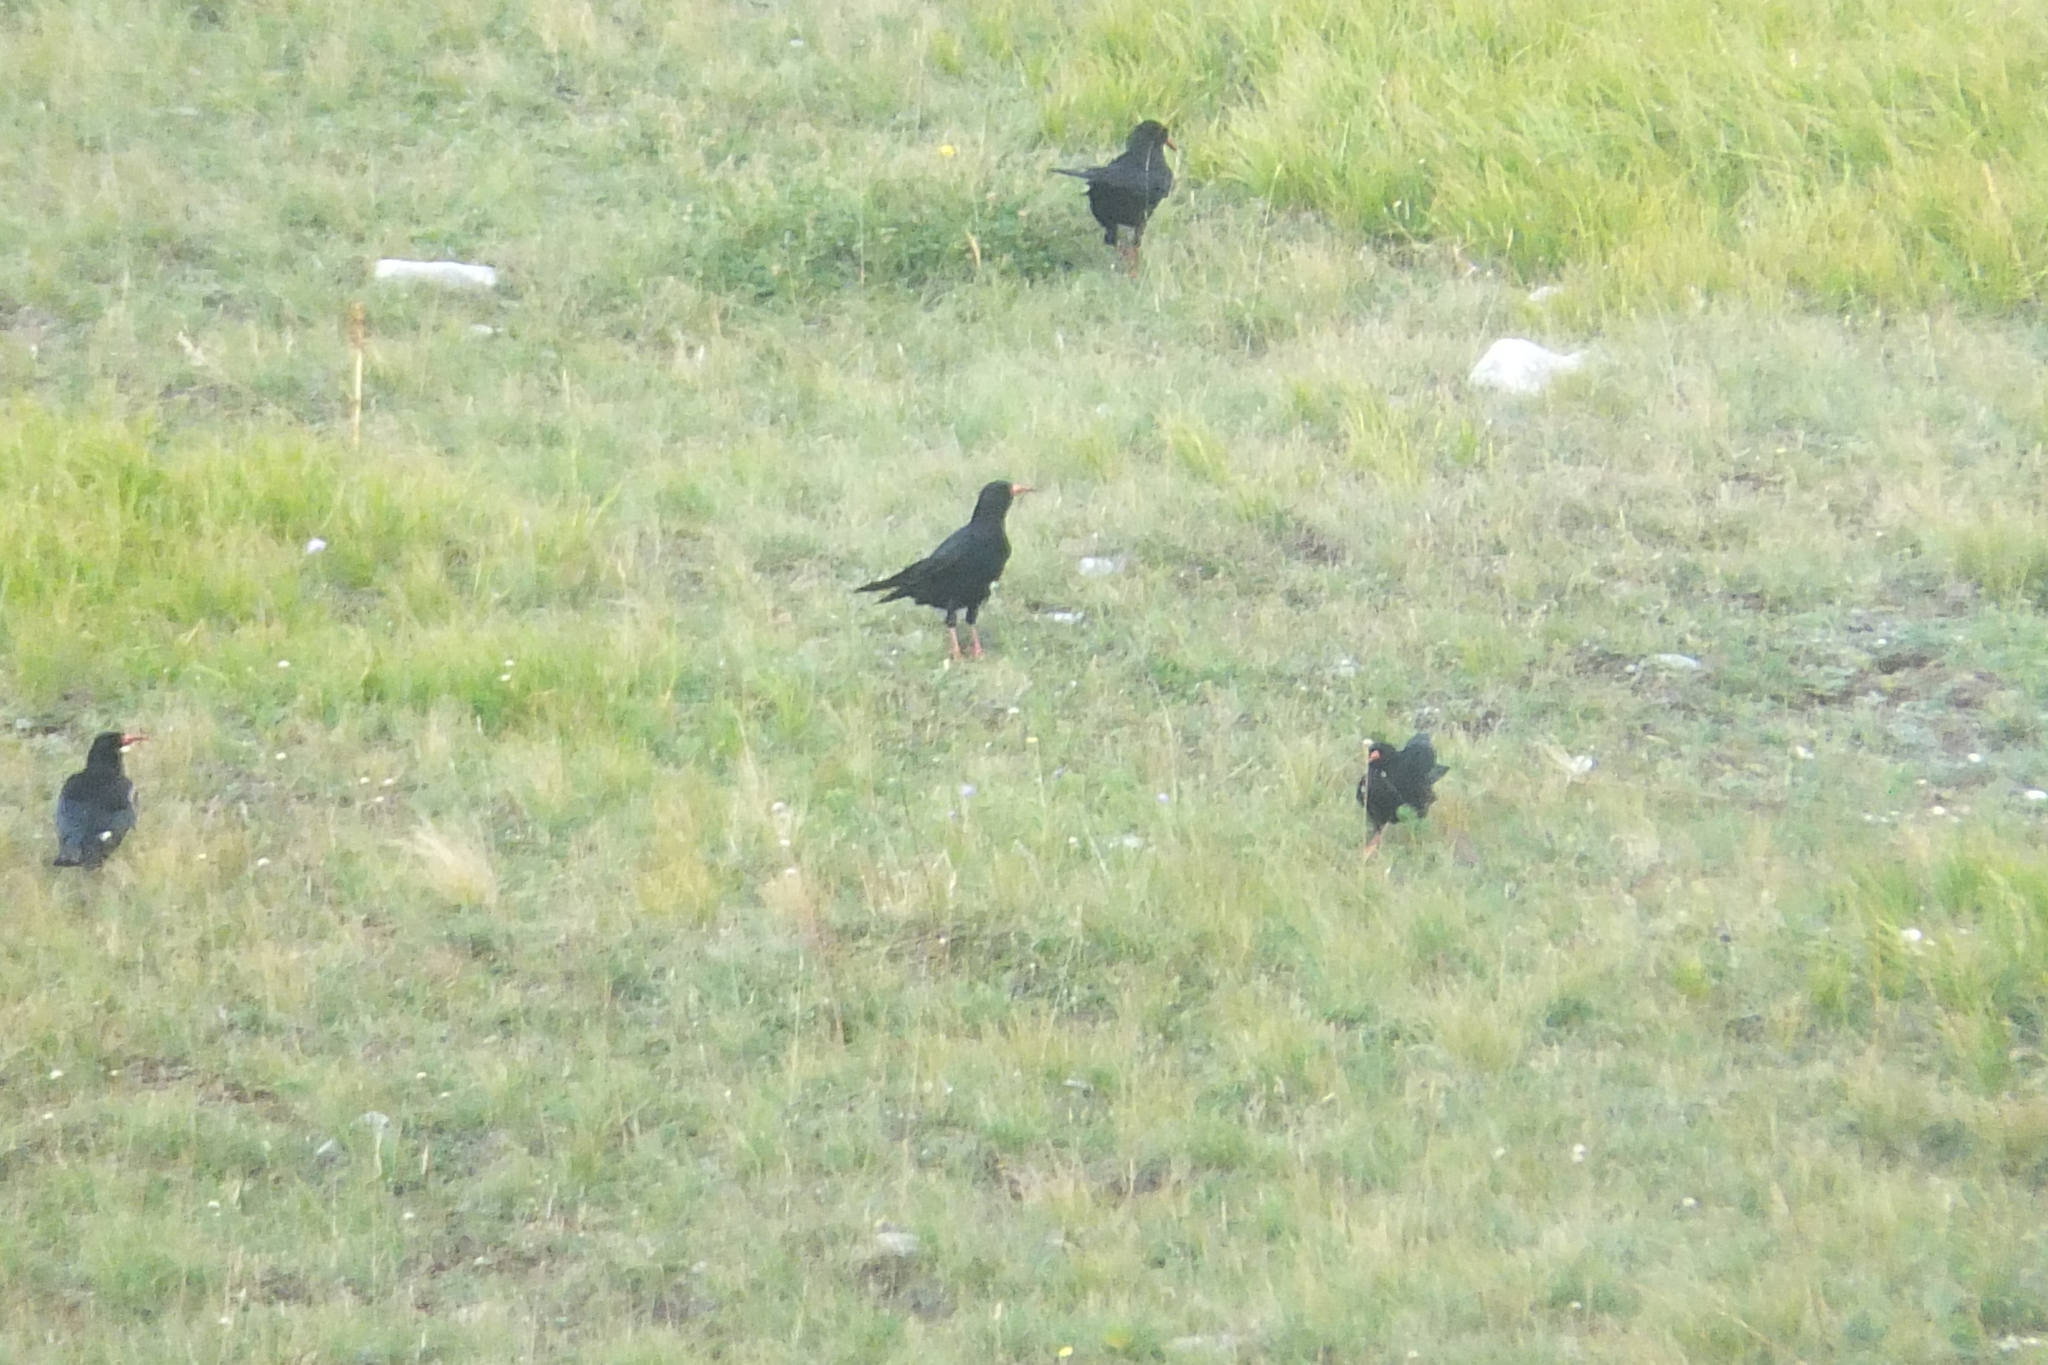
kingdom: Animalia
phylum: Chordata
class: Aves
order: Passeriformes
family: Corvidae
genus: Pyrrhocorax
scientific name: Pyrrhocorax pyrrhocorax
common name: Red-billed chough
